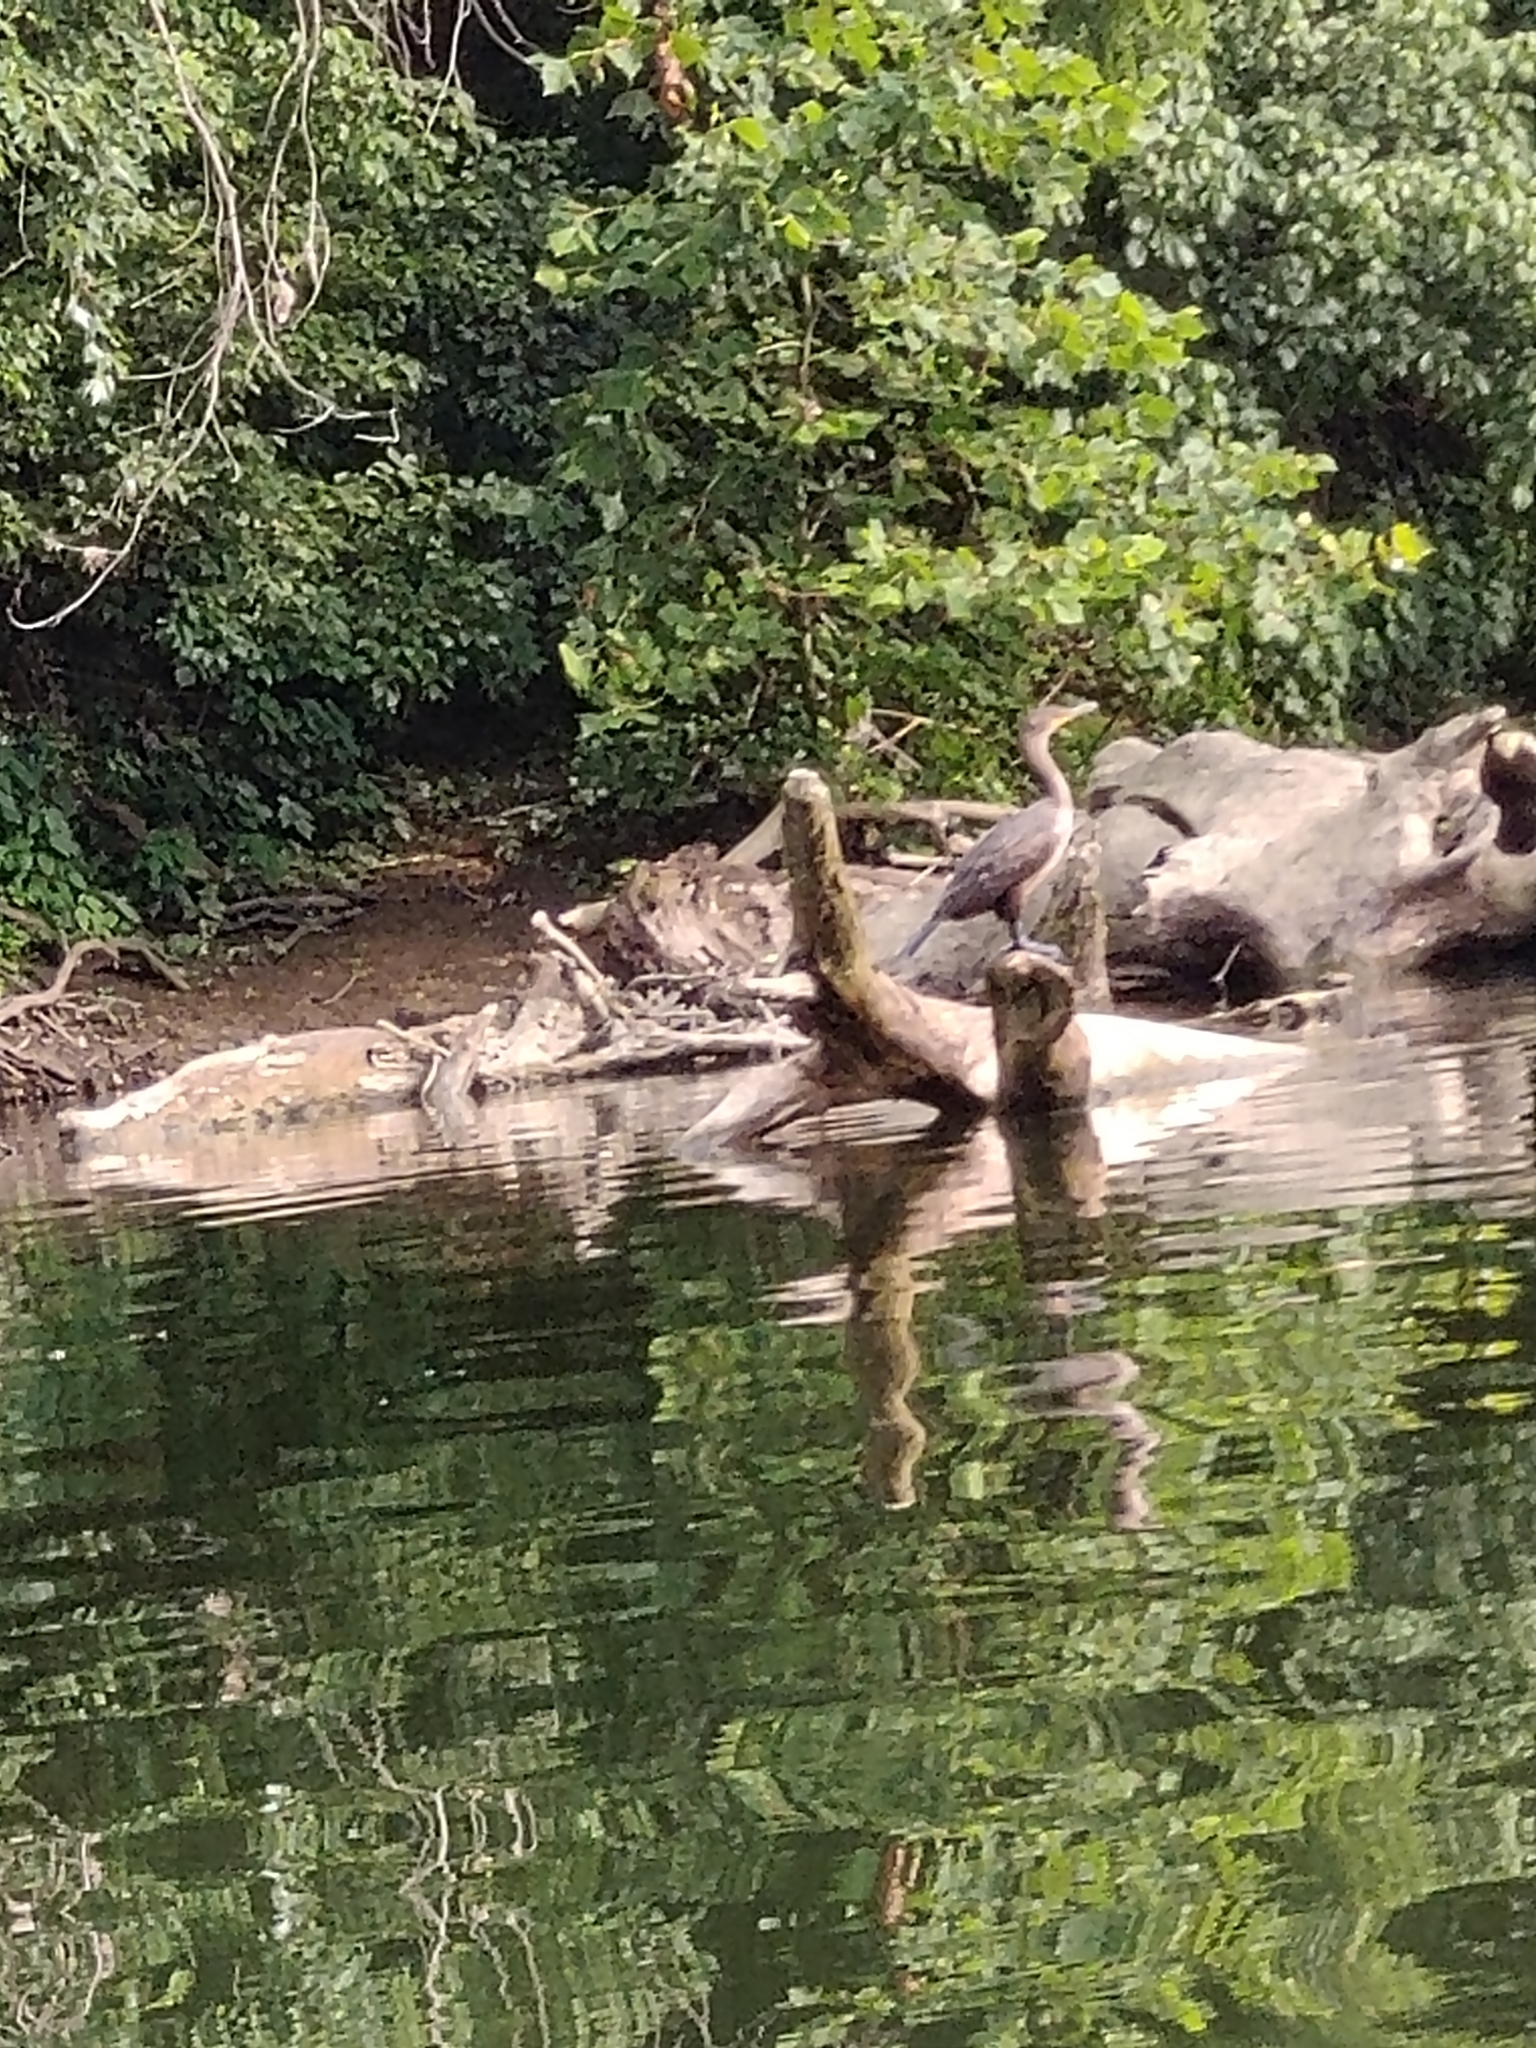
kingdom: Animalia
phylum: Chordata
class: Aves
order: Suliformes
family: Phalacrocoracidae
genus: Phalacrocorax
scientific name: Phalacrocorax auritus
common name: Double-crested cormorant
